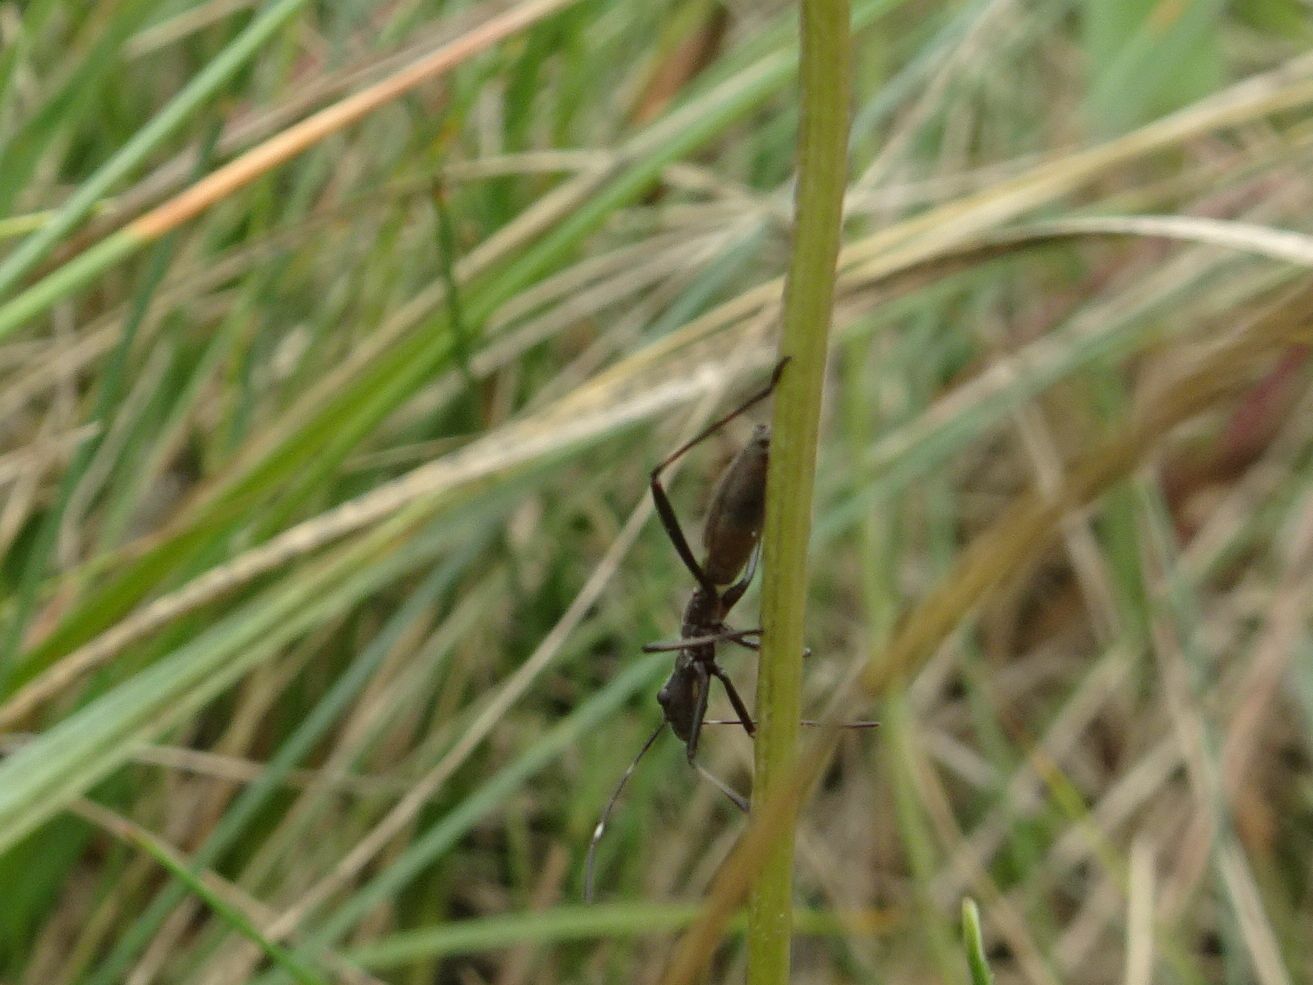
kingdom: Animalia
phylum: Arthropoda
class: Insecta
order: Hemiptera
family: Alydidae
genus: Micrelytra
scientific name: Micrelytra fossularum
